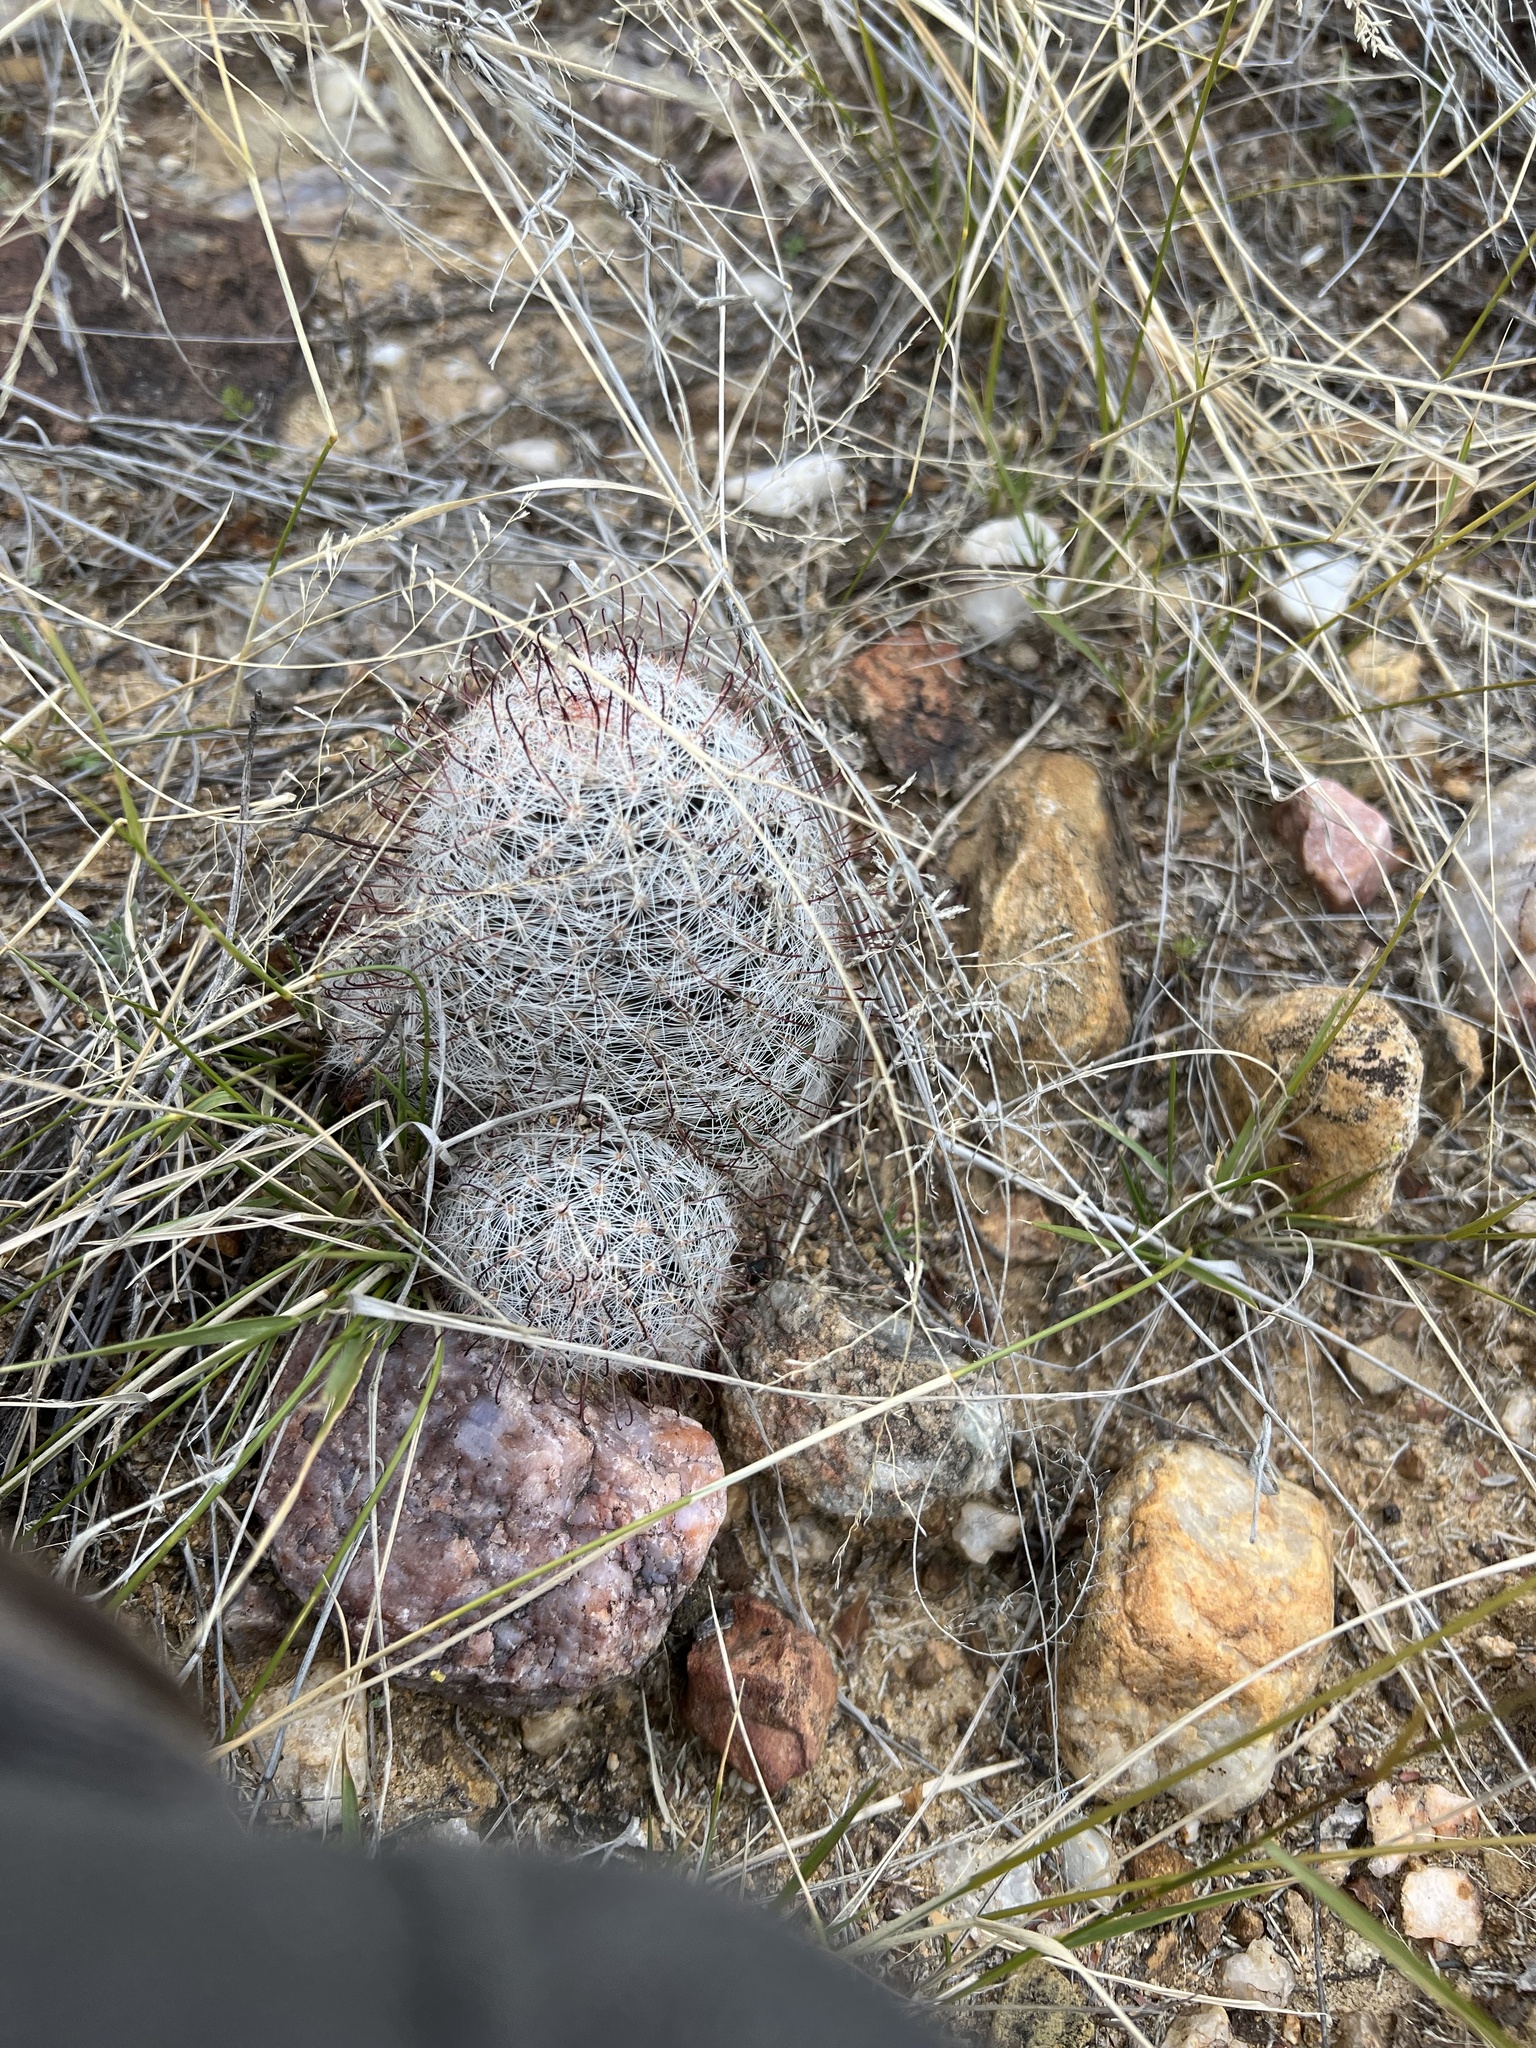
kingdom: Plantae
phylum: Tracheophyta
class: Magnoliopsida
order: Caryophyllales
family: Cactaceae
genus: Cochemiea
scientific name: Cochemiea grahamii
